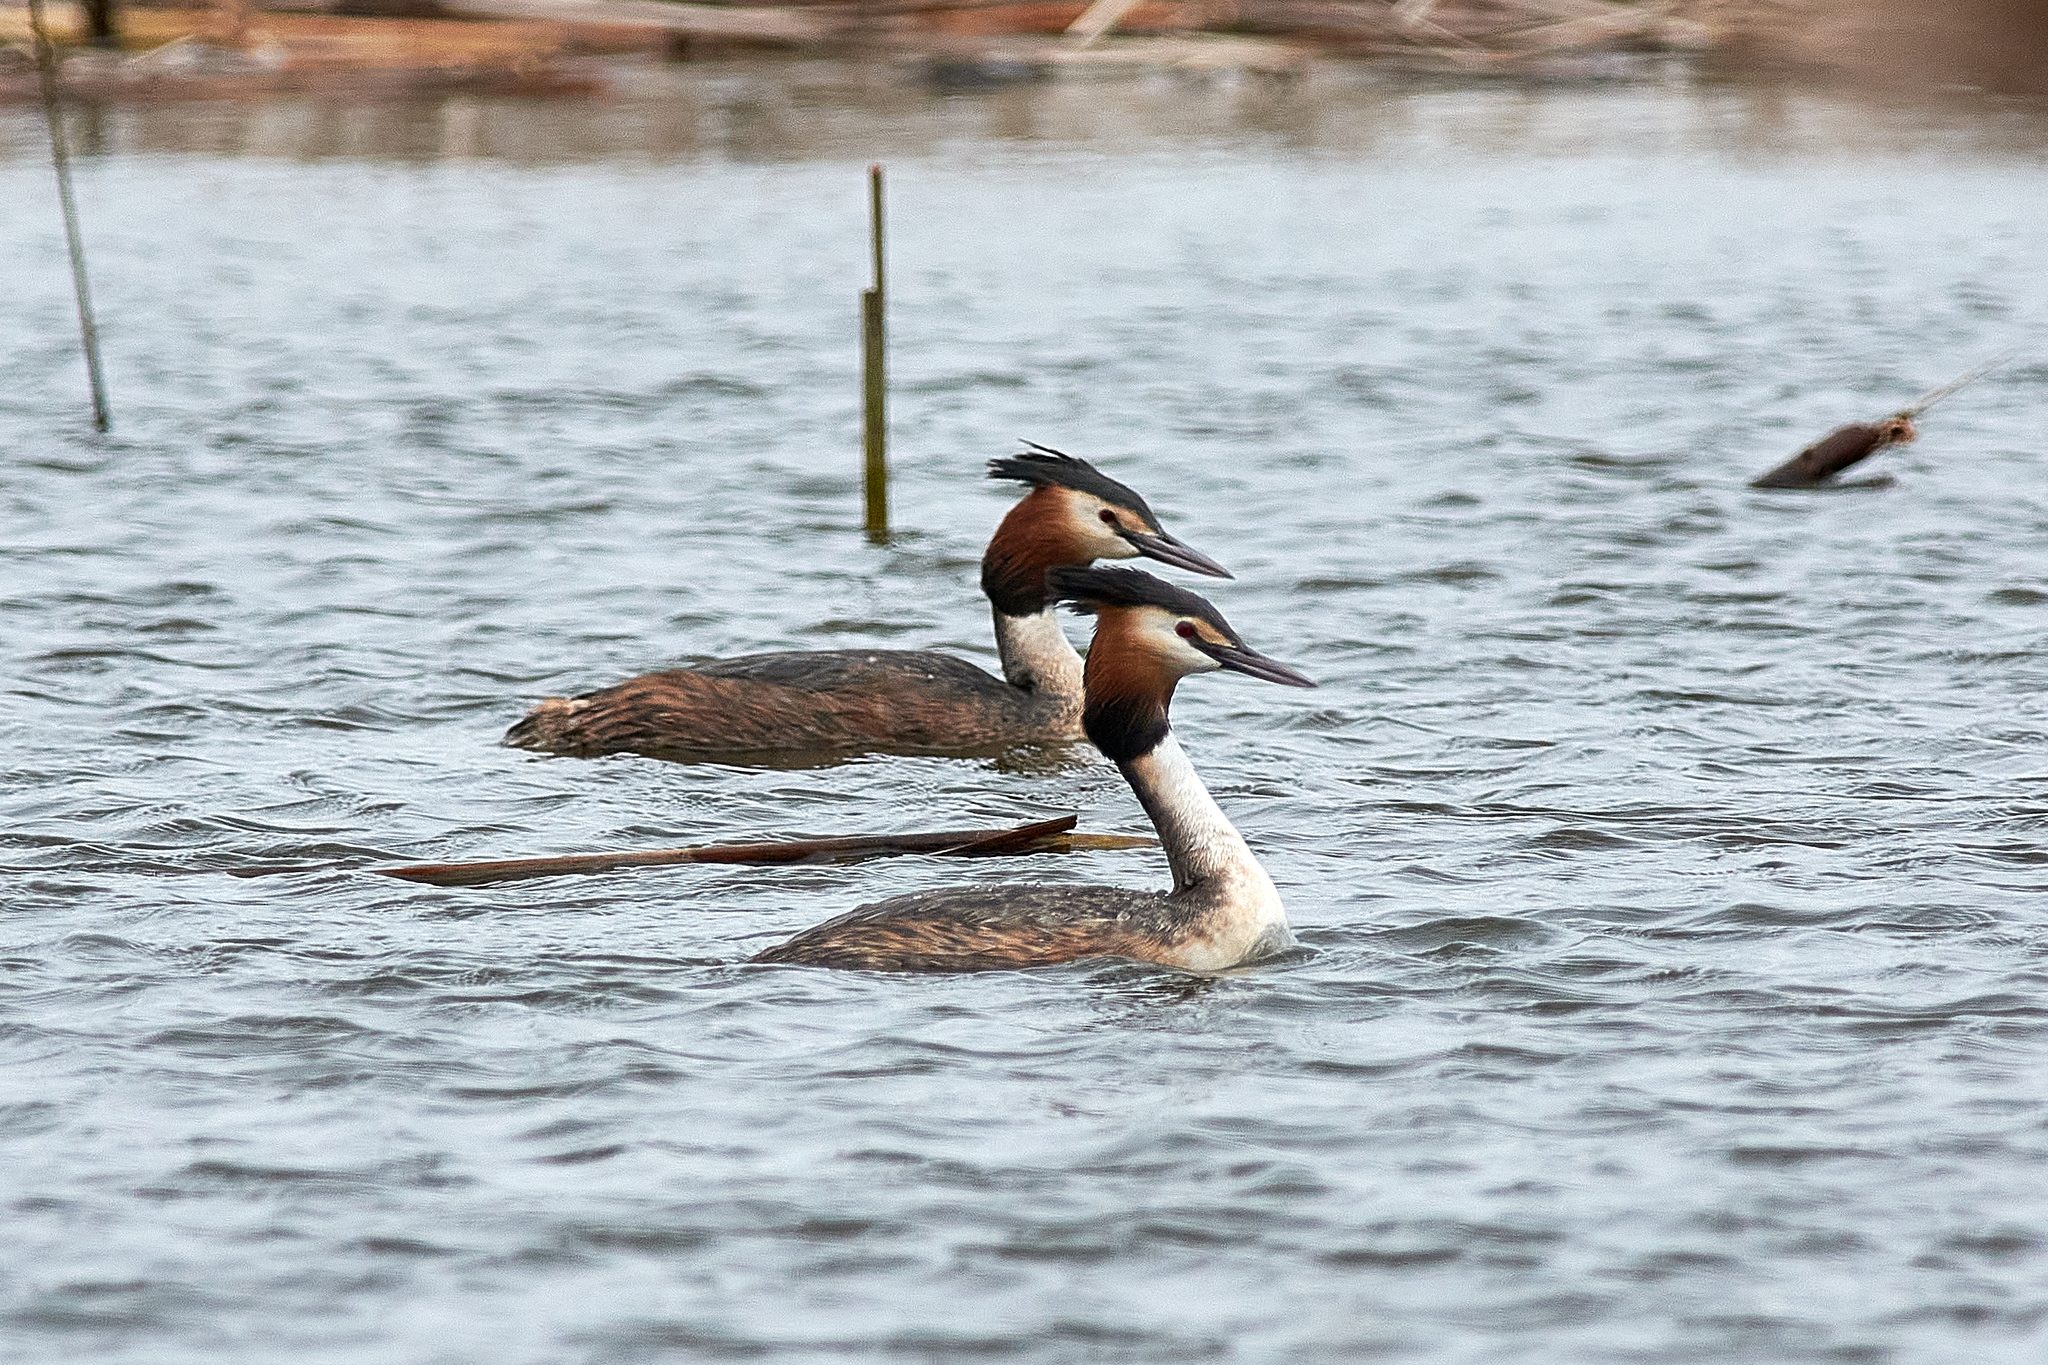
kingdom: Animalia
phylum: Chordata
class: Aves
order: Podicipediformes
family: Podicipedidae
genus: Podiceps
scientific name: Podiceps cristatus
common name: Great crested grebe
